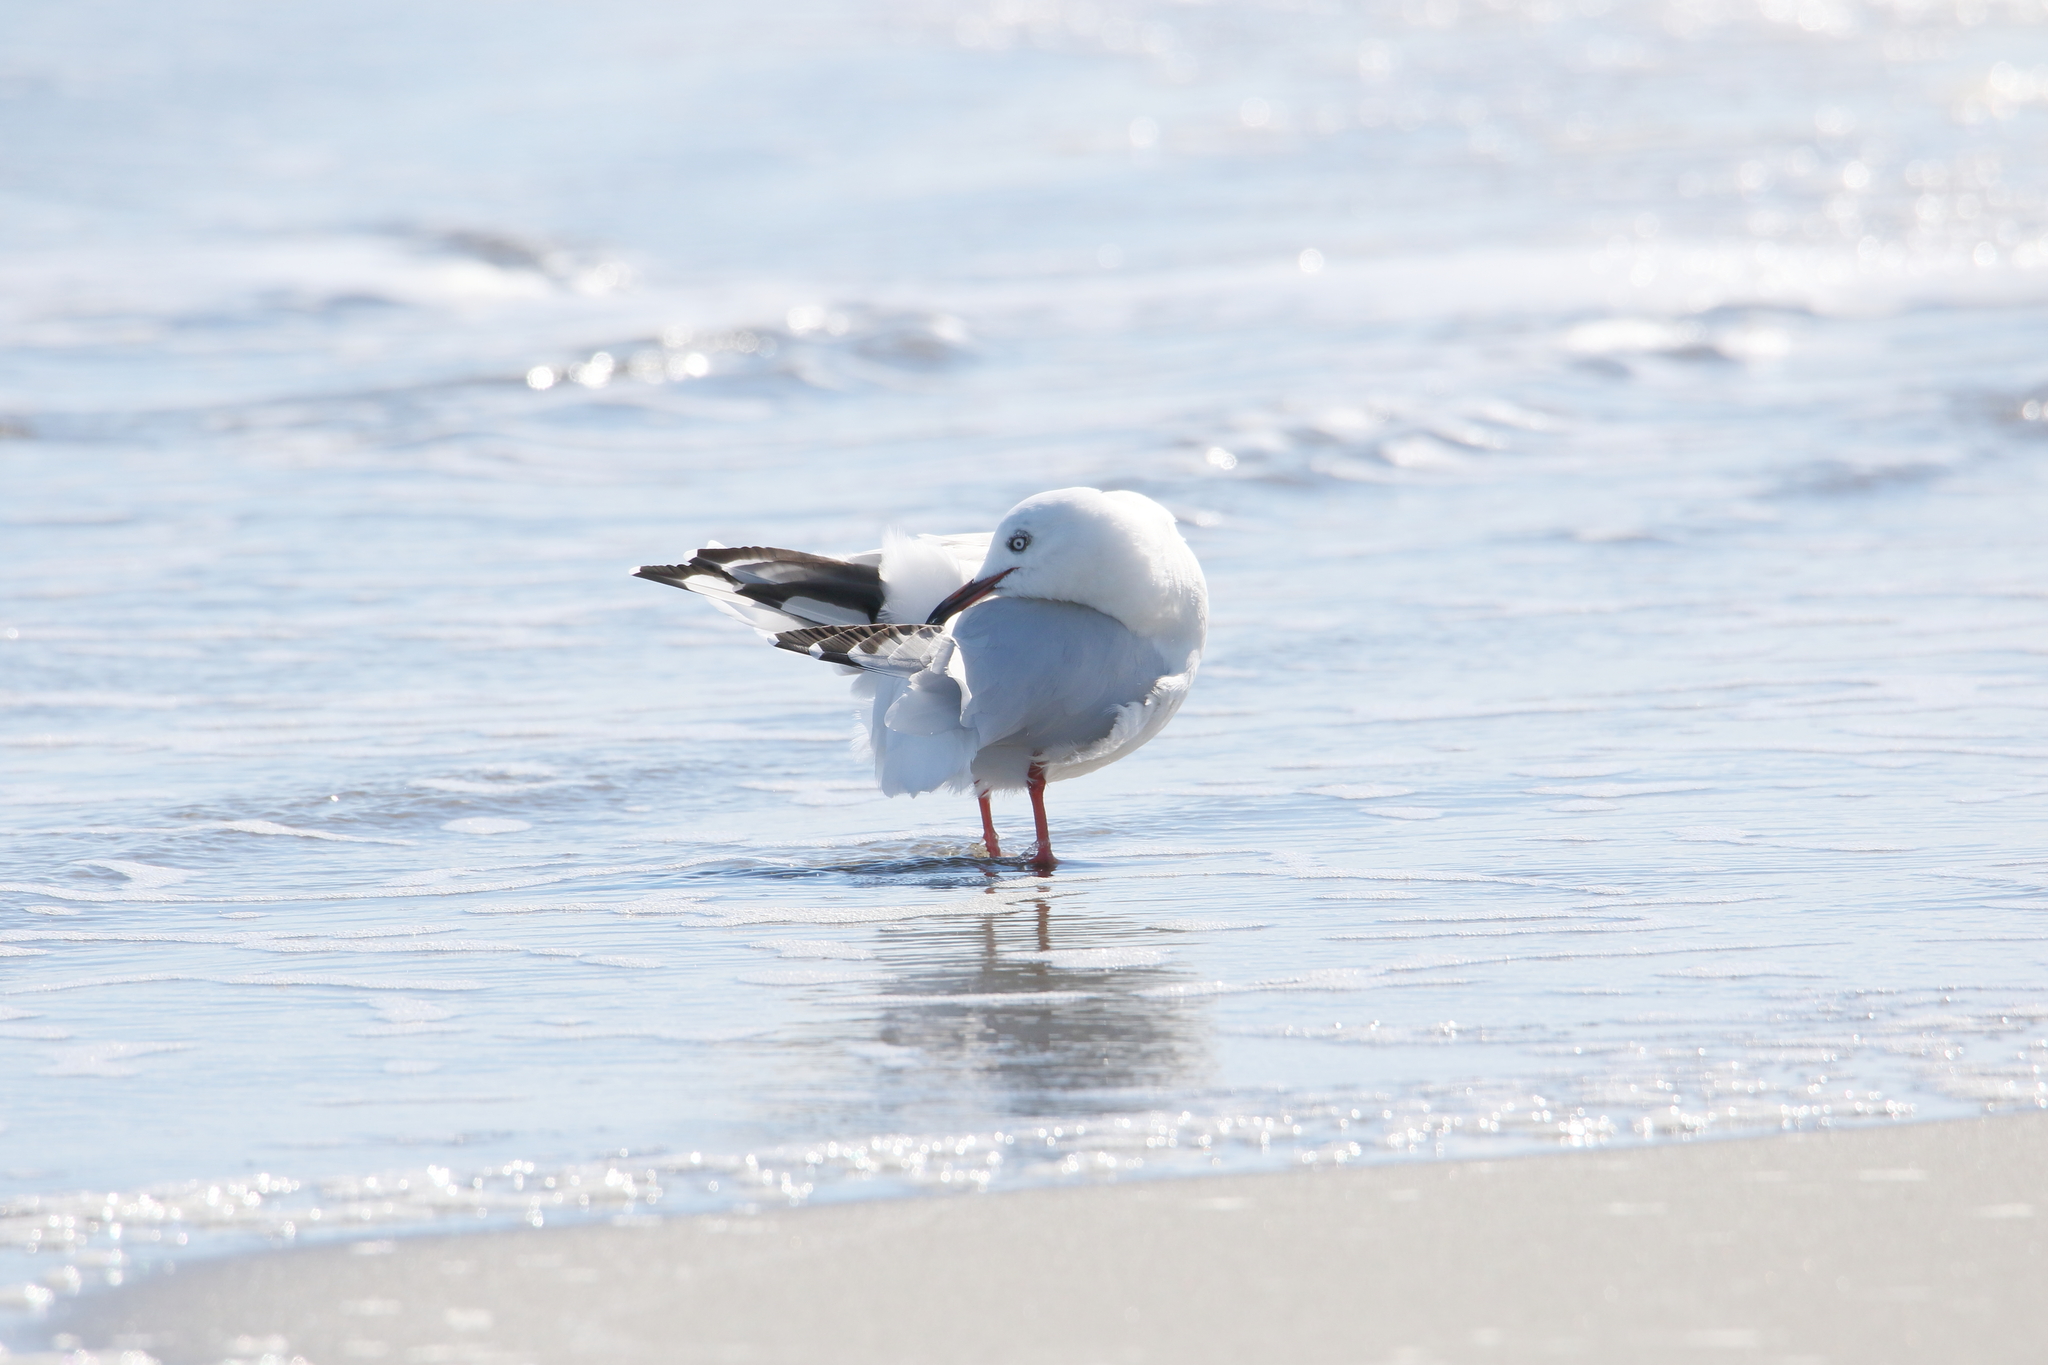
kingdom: Animalia
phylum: Chordata
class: Aves
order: Charadriiformes
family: Laridae
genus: Chroicocephalus
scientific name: Chroicocephalus bulleri
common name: Black-billed gull
